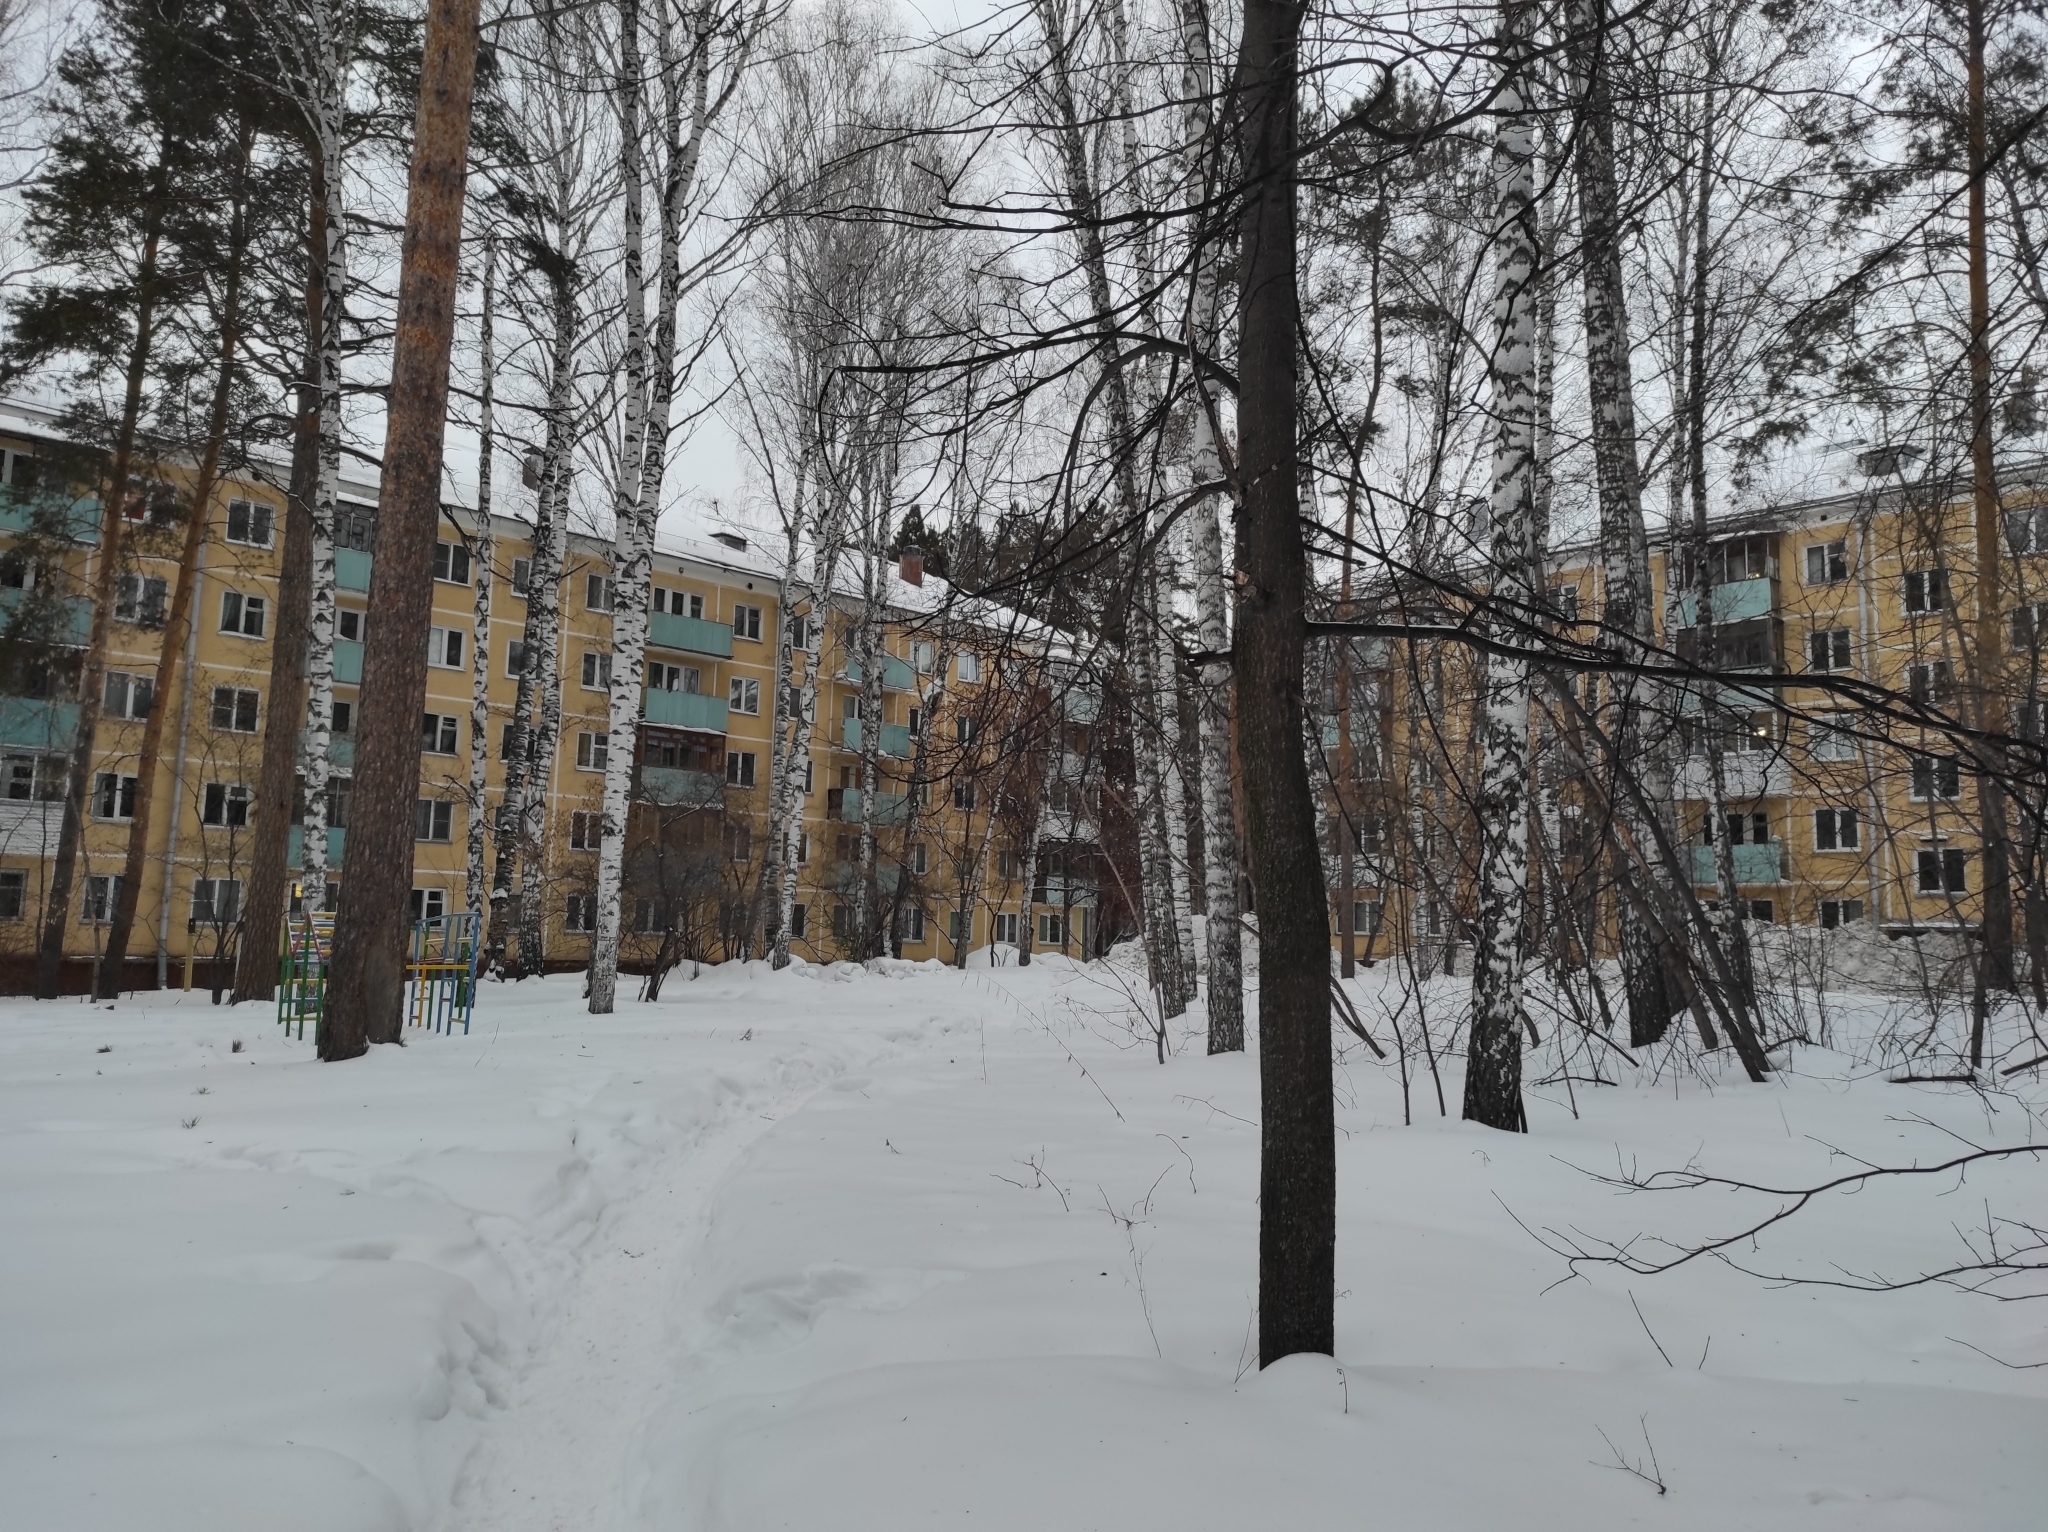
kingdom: Plantae
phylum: Tracheophyta
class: Magnoliopsida
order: Fagales
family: Betulaceae
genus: Betula
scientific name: Betula pendula
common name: Silver birch
